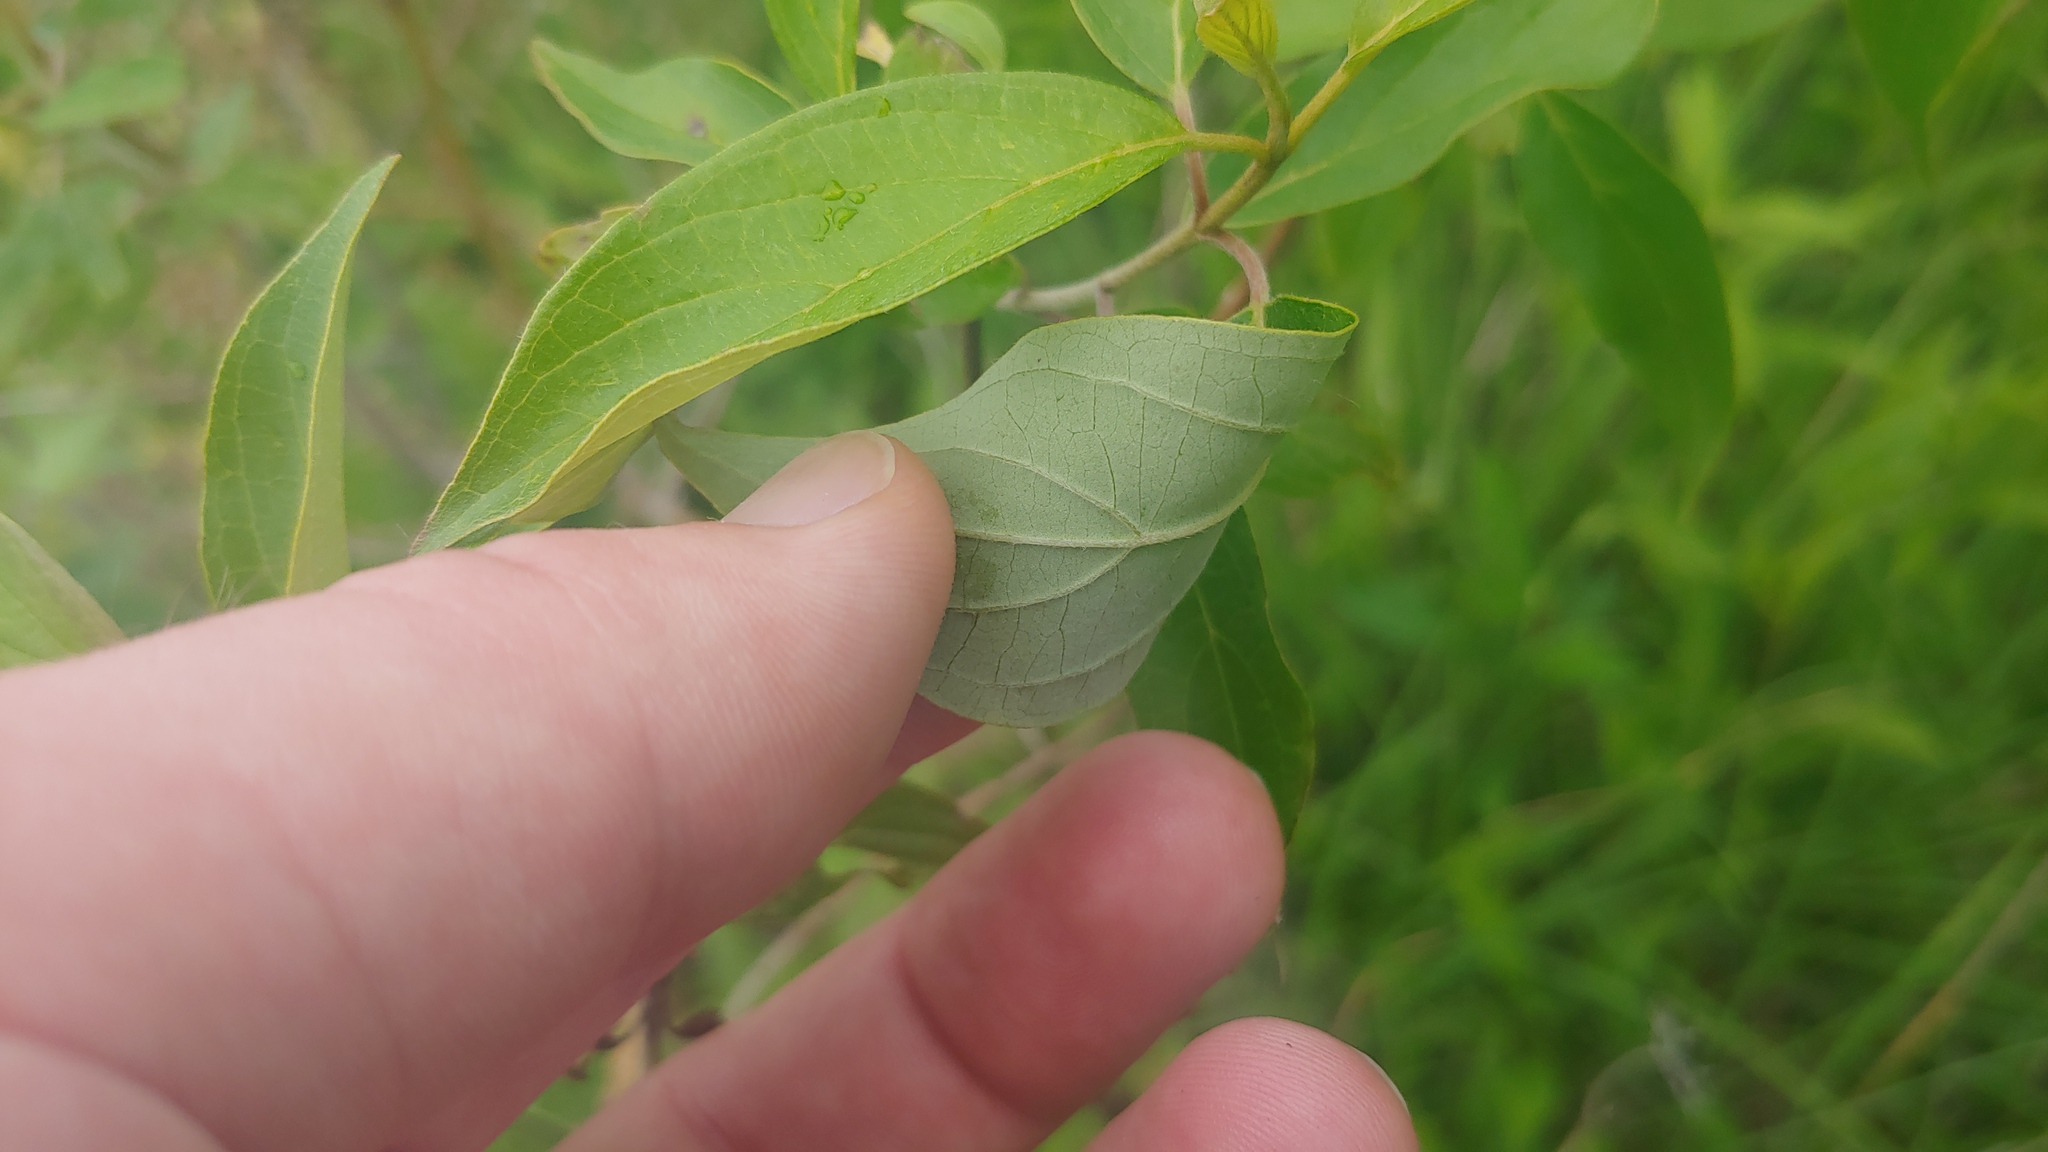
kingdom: Plantae
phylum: Tracheophyta
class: Magnoliopsida
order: Cornales
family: Cornaceae
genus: Cornus
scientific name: Cornus amomum
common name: Silky dogwood
